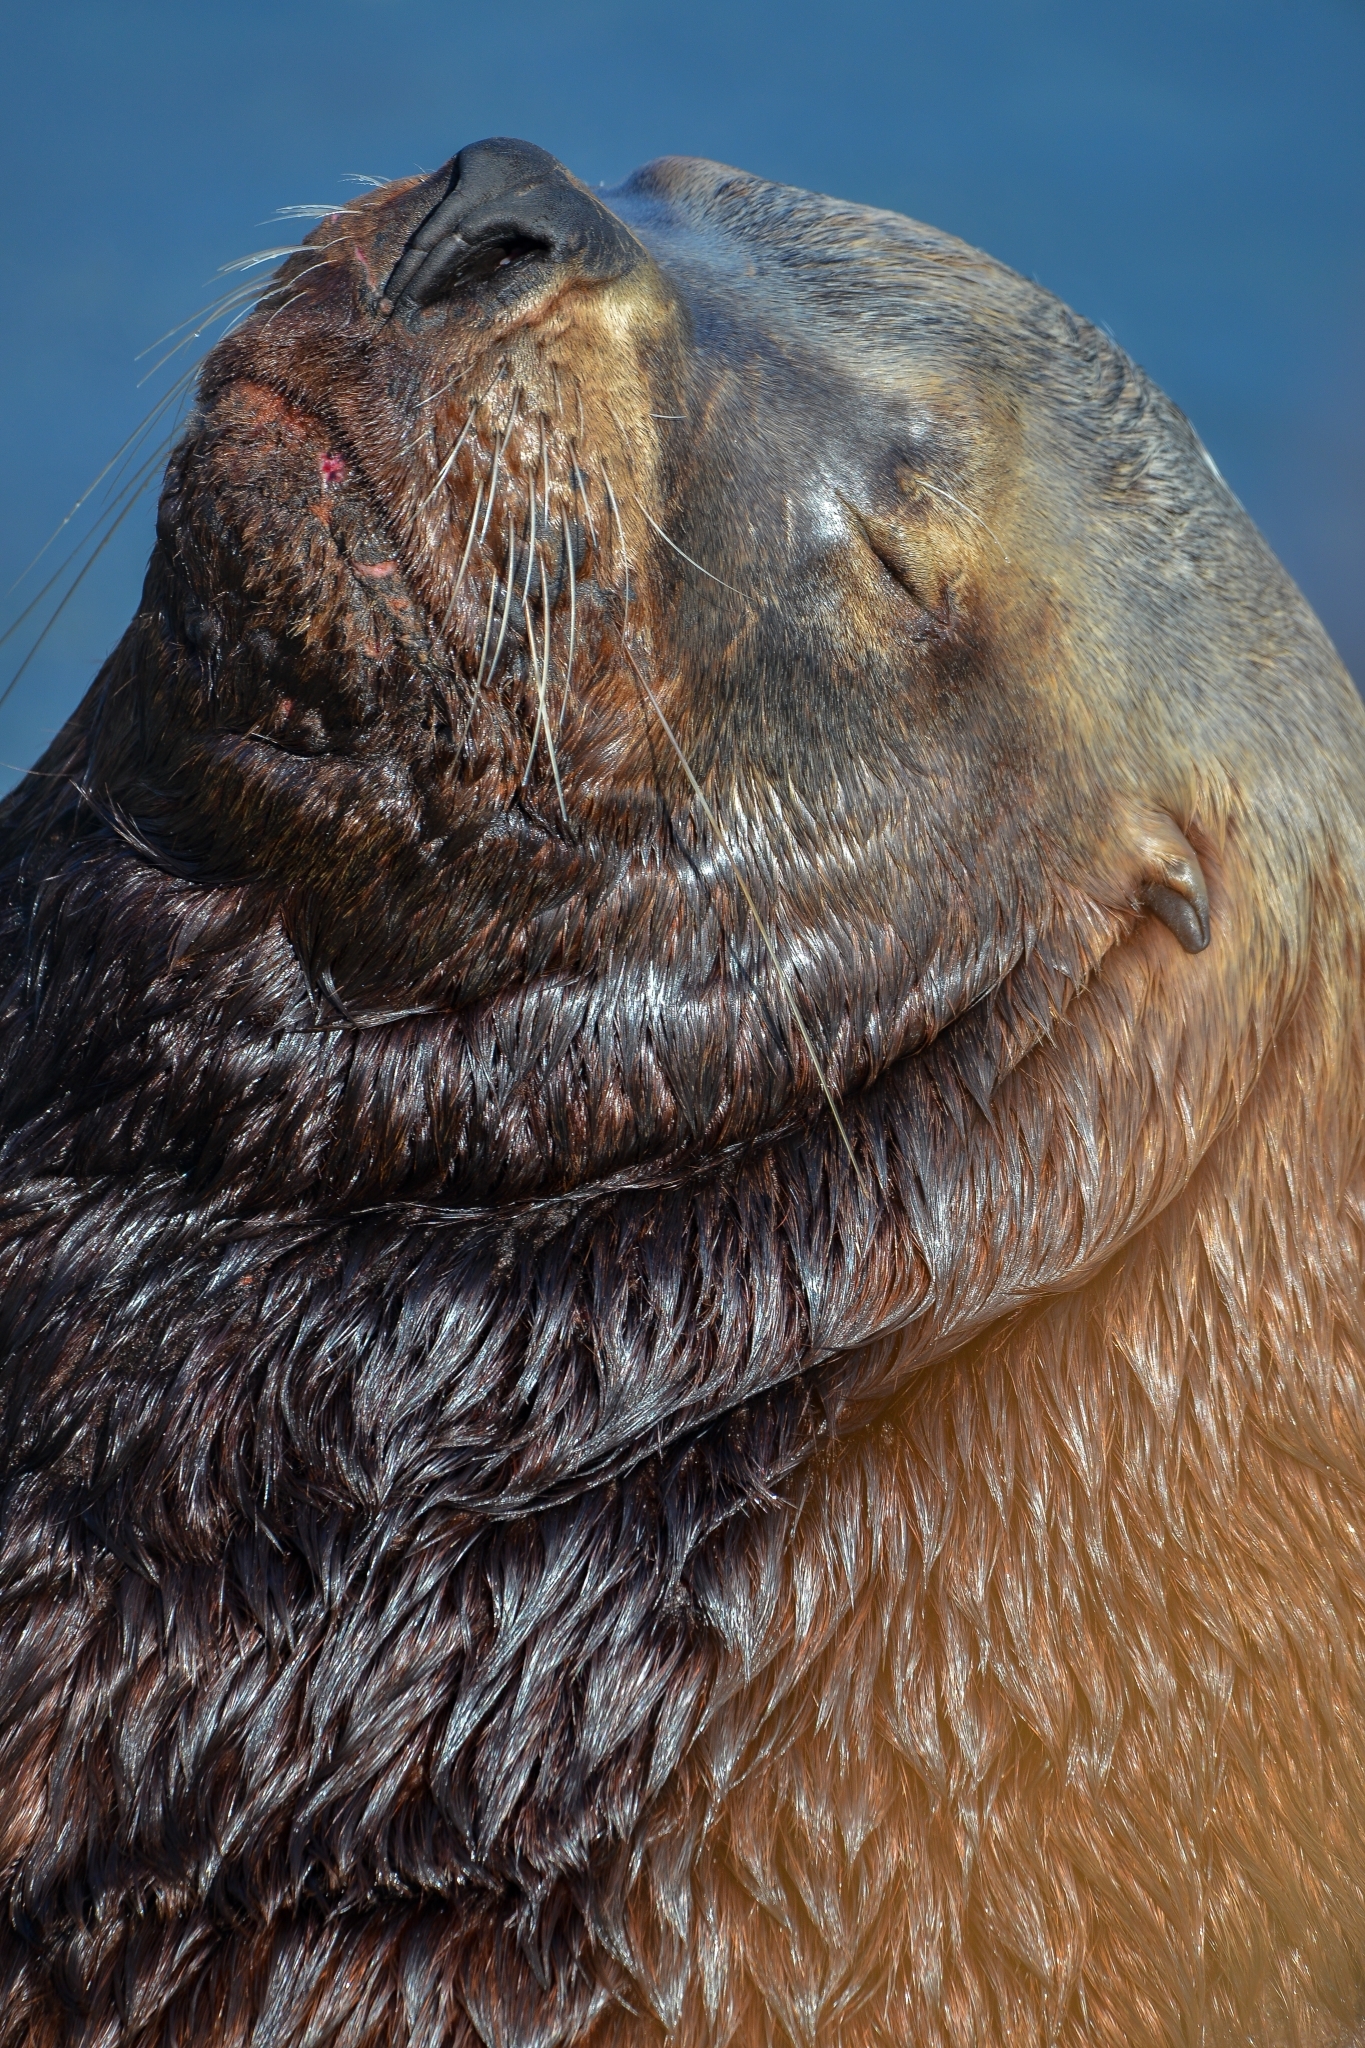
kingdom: Animalia
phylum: Chordata
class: Mammalia
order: Carnivora
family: Otariidae
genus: Eumetopias
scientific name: Eumetopias jubatus
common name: Steller sea lion
